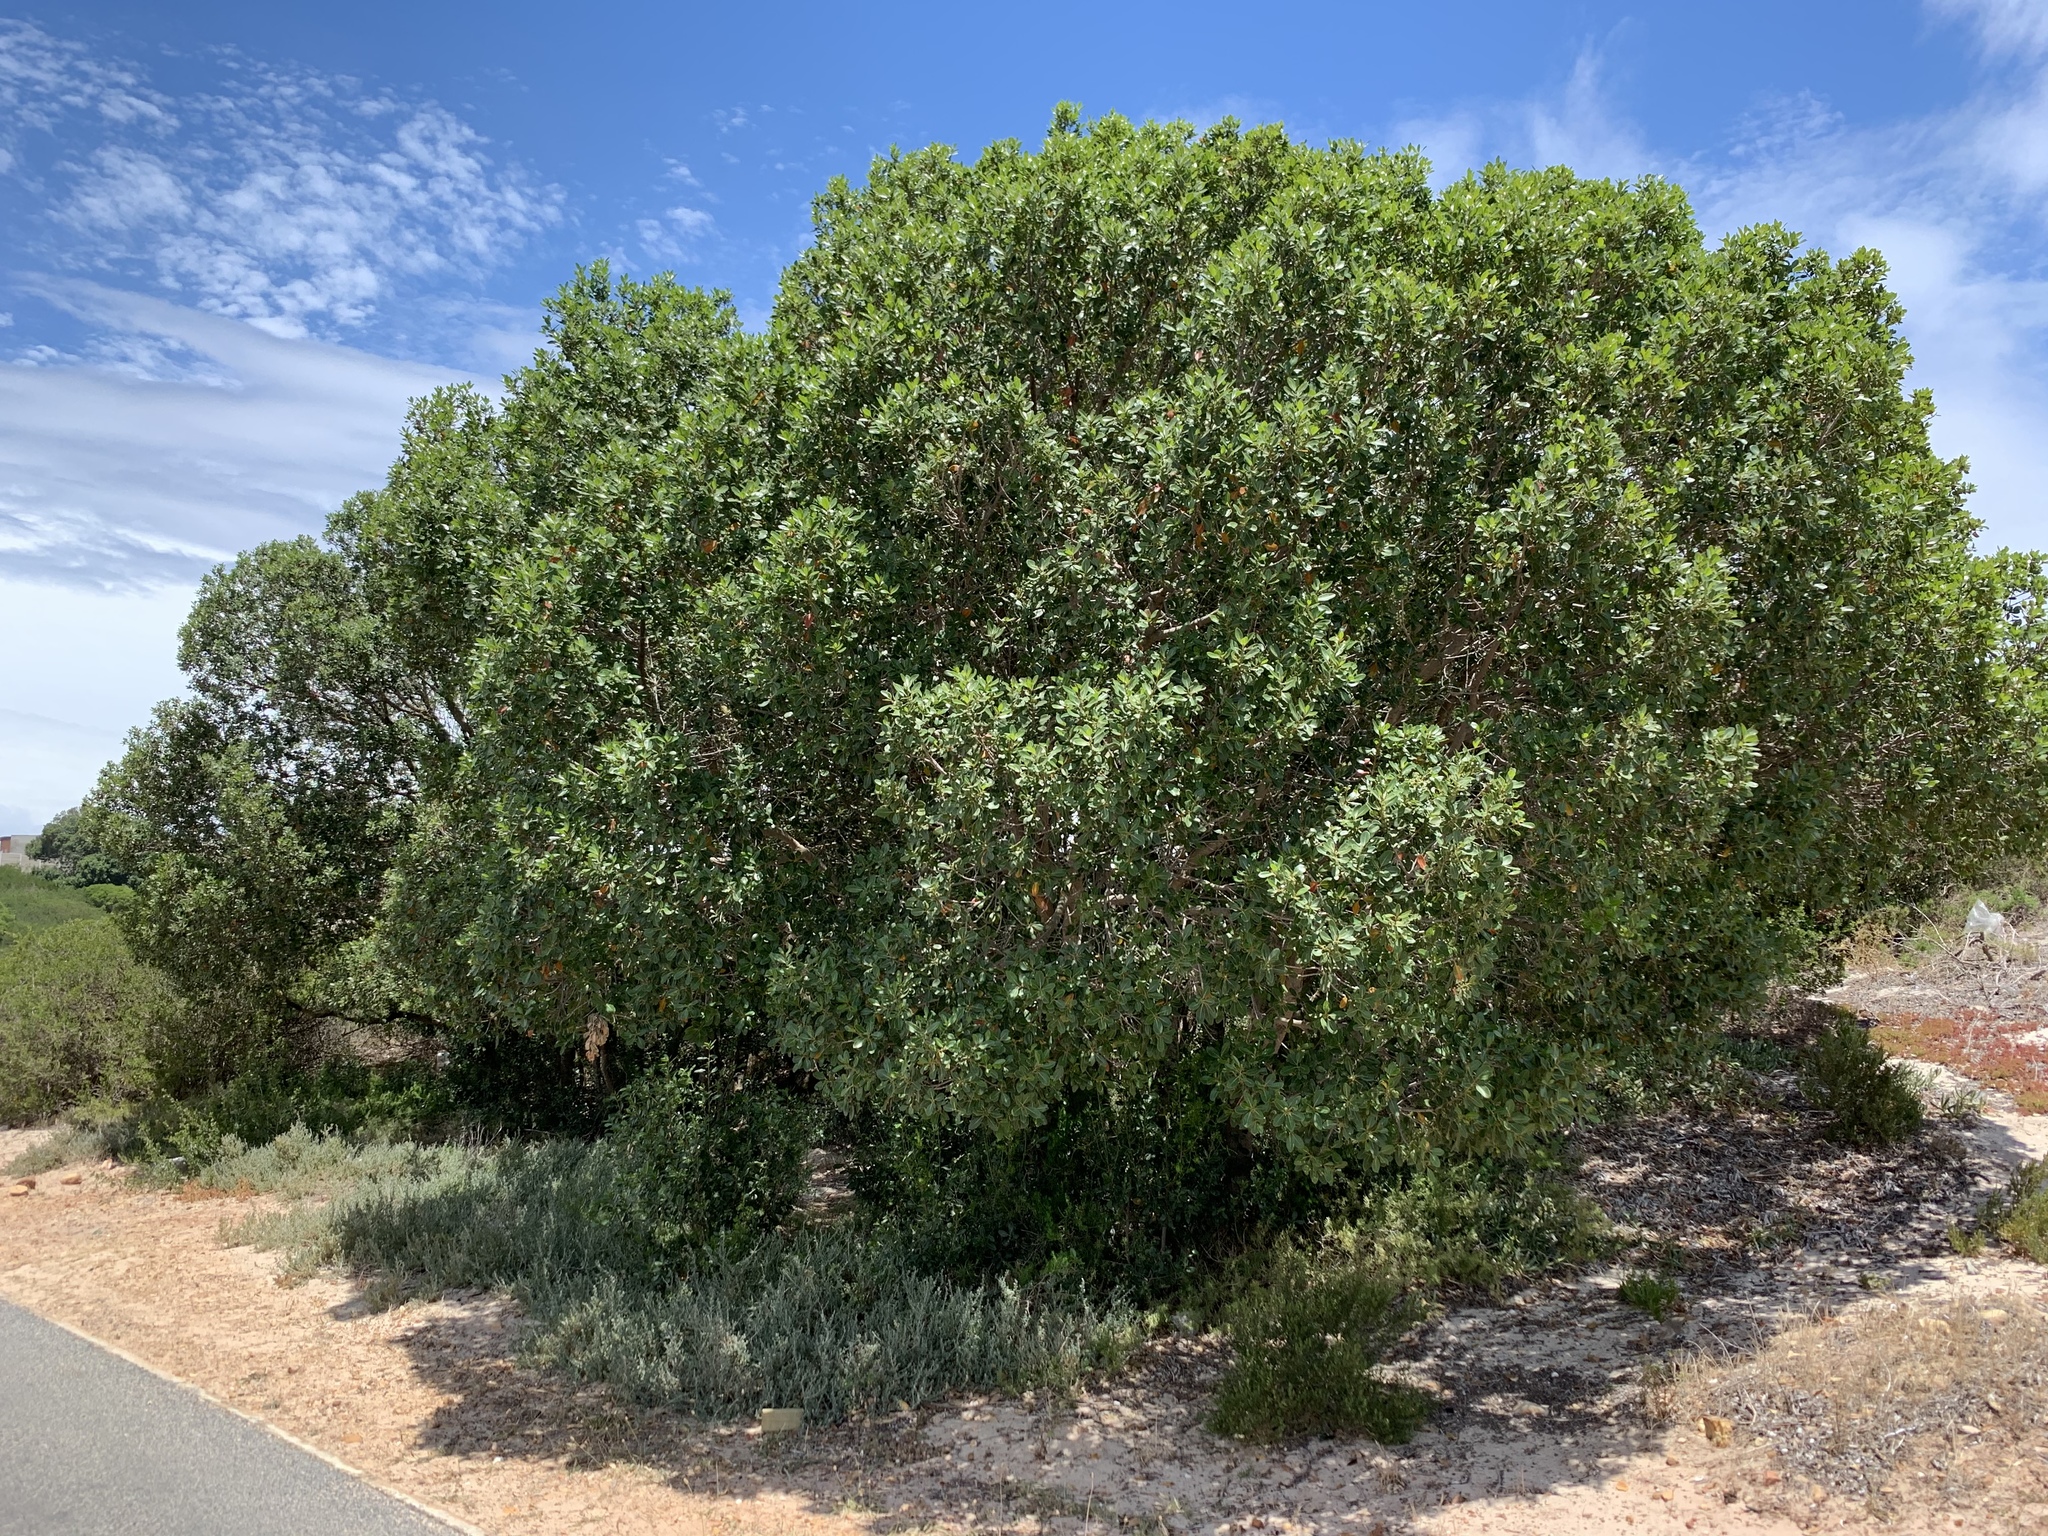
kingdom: Plantae
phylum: Tracheophyta
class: Magnoliopsida
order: Ericales
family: Sapotaceae
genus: Sideroxylon
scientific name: Sideroxylon inerme
